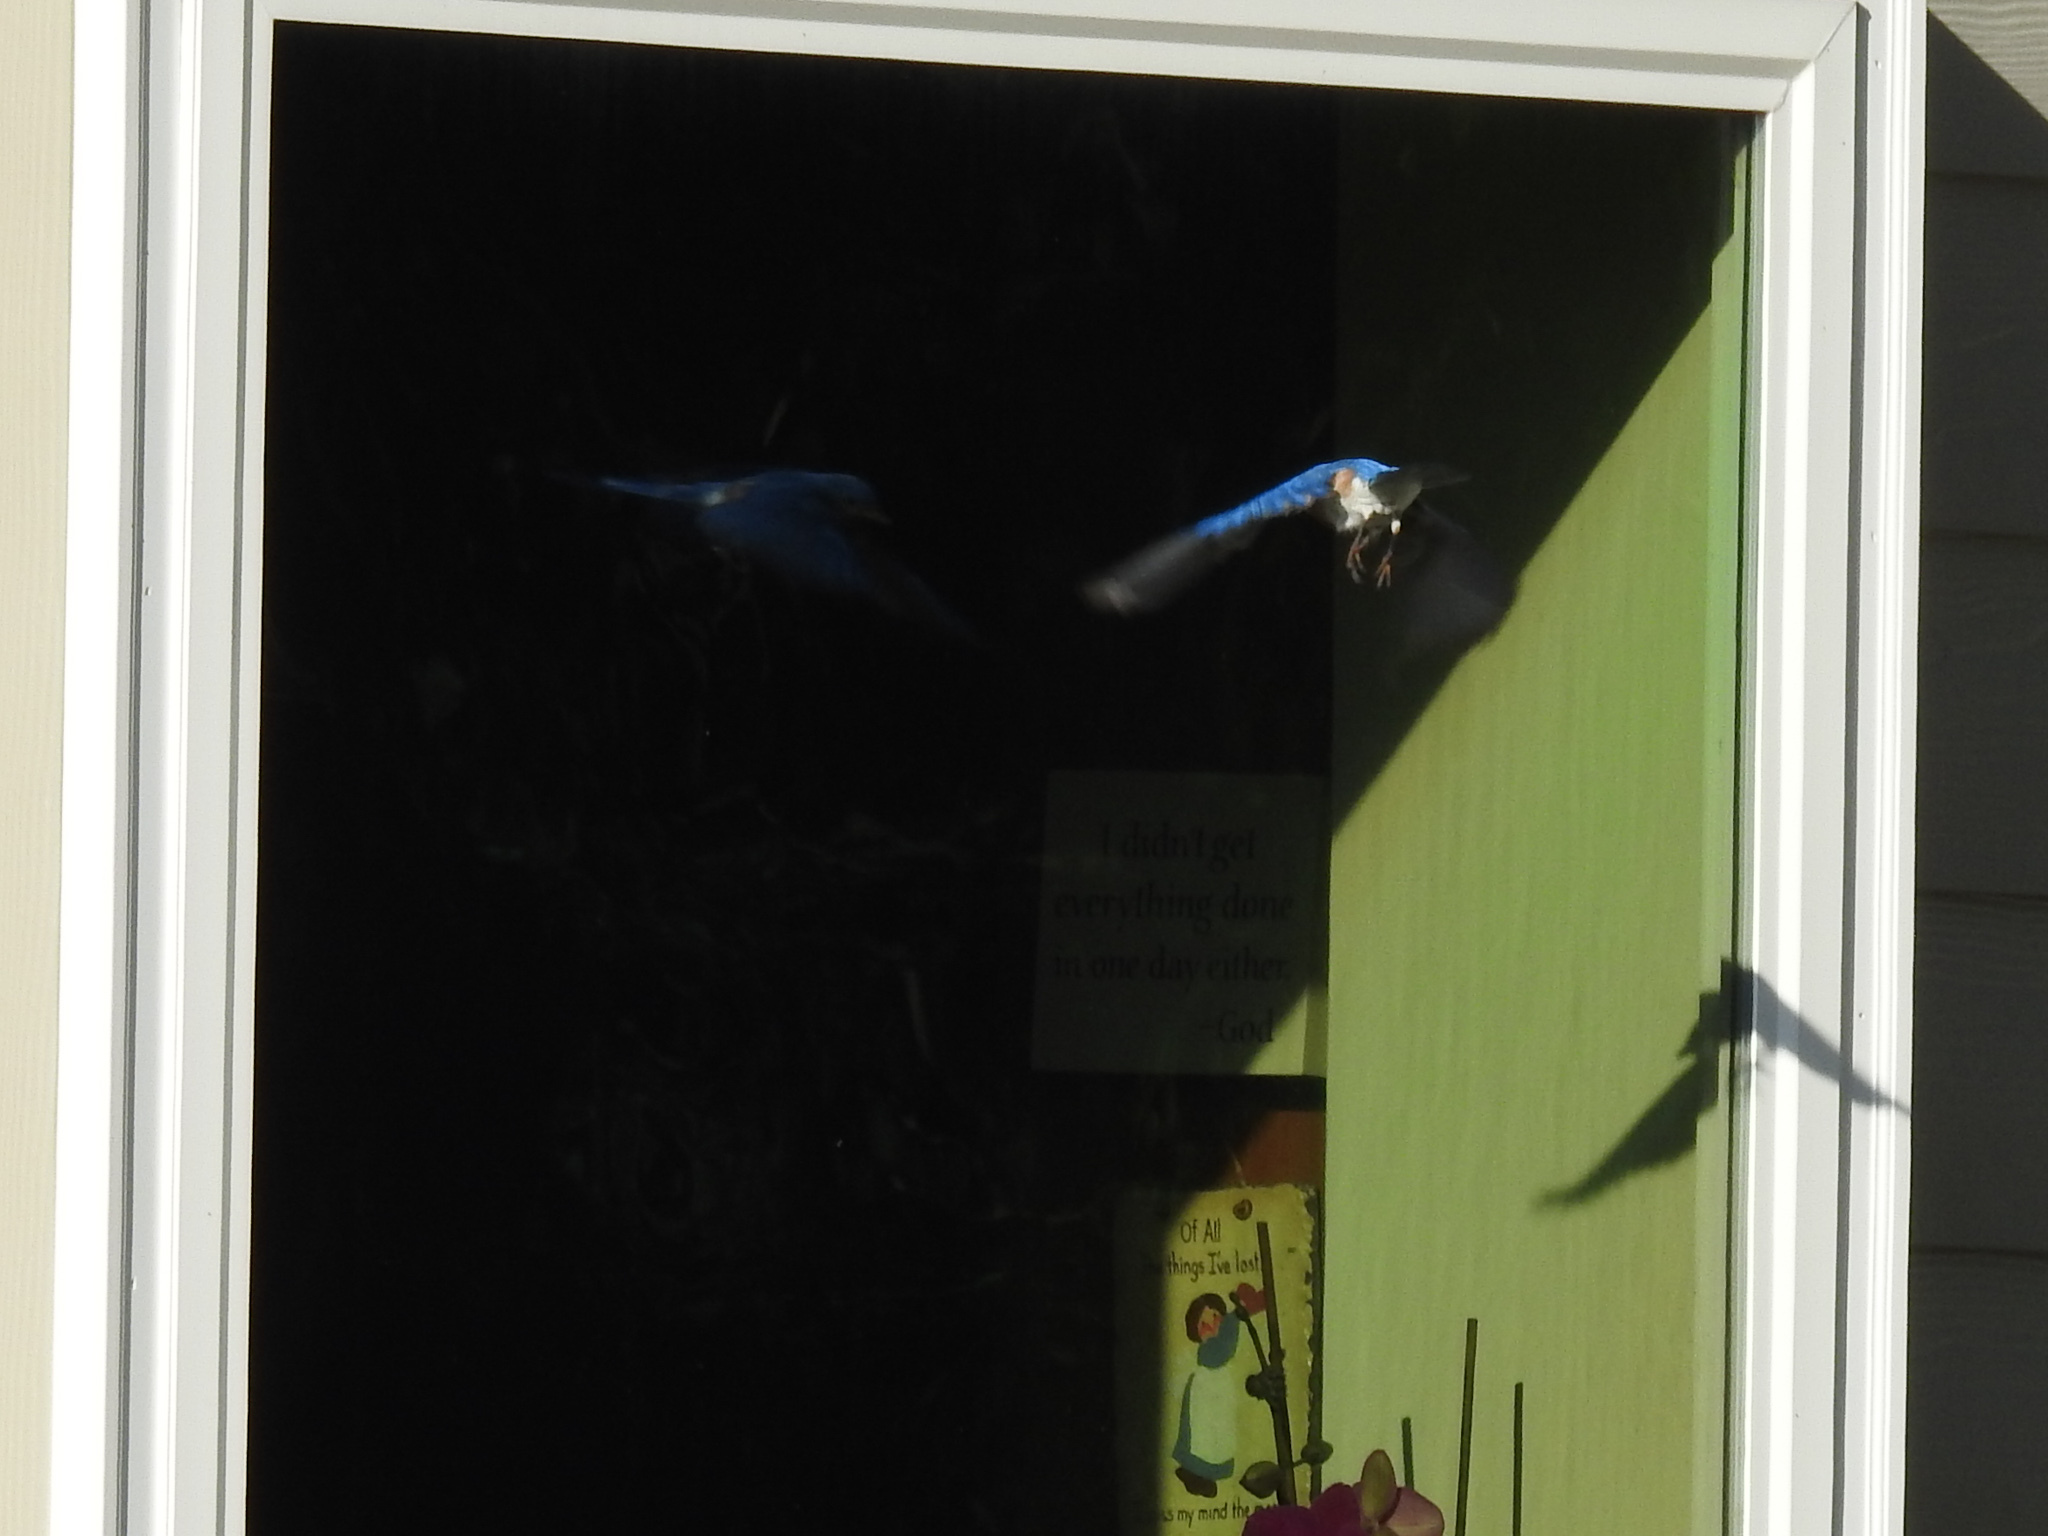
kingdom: Animalia
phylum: Chordata
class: Aves
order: Passeriformes
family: Turdidae
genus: Sialia
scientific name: Sialia sialis
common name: Eastern bluebird
